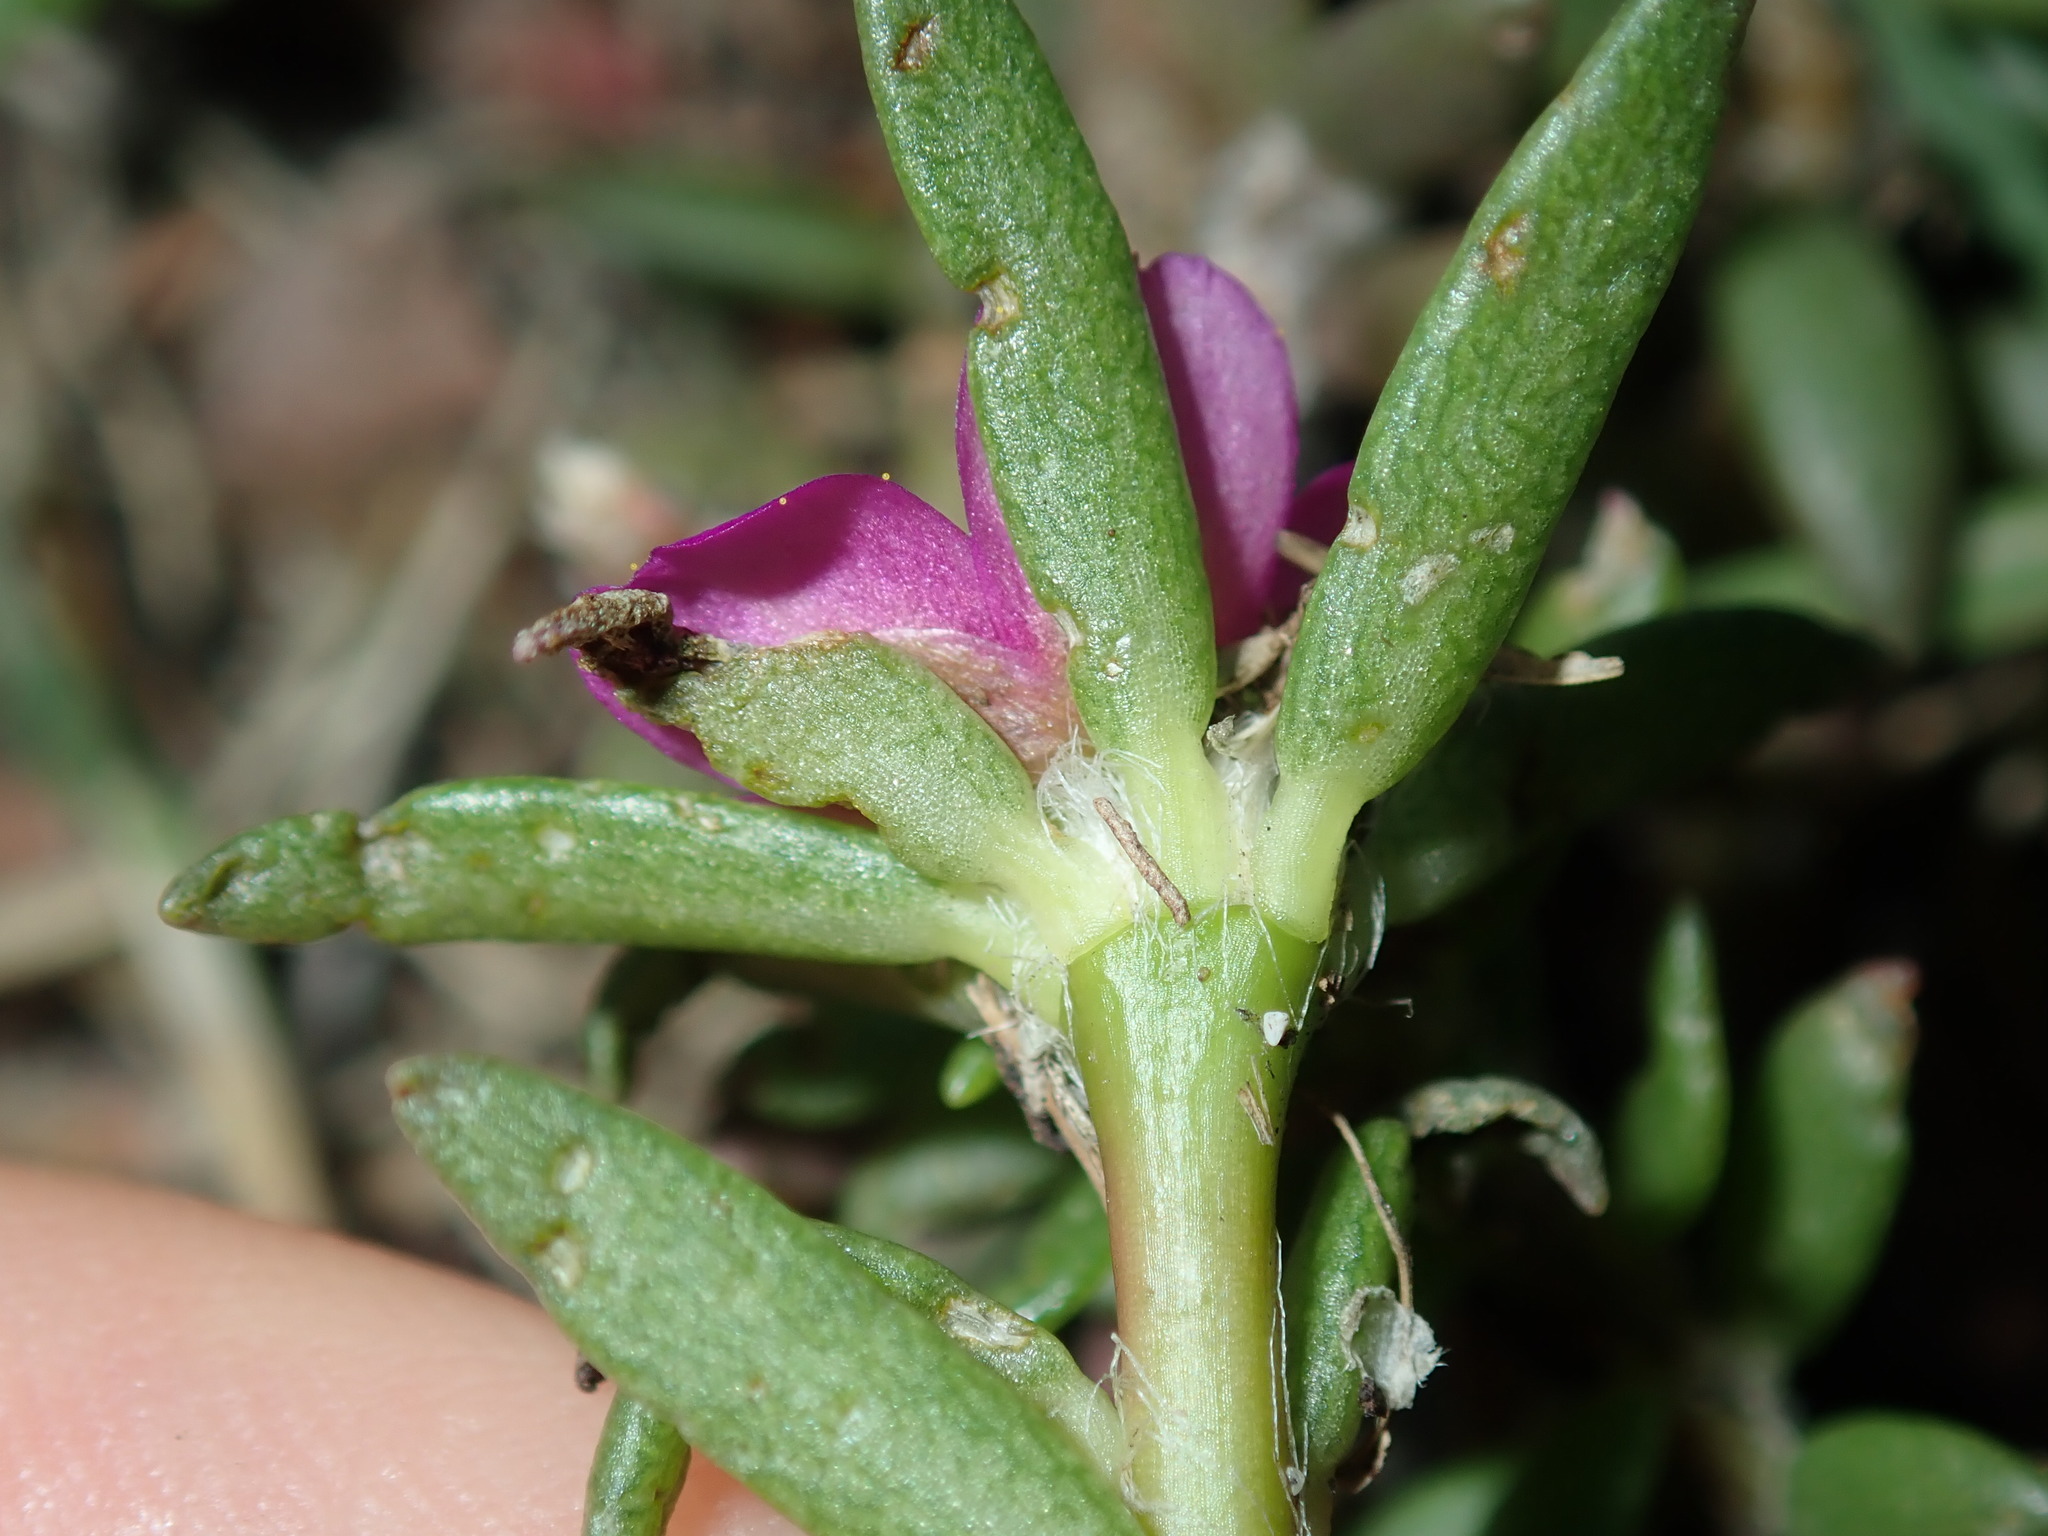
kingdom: Plantae
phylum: Tracheophyta
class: Magnoliopsida
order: Caryophyllales
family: Portulacaceae
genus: Portulaca
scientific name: Portulaca pilosa
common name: Kiss me quick
